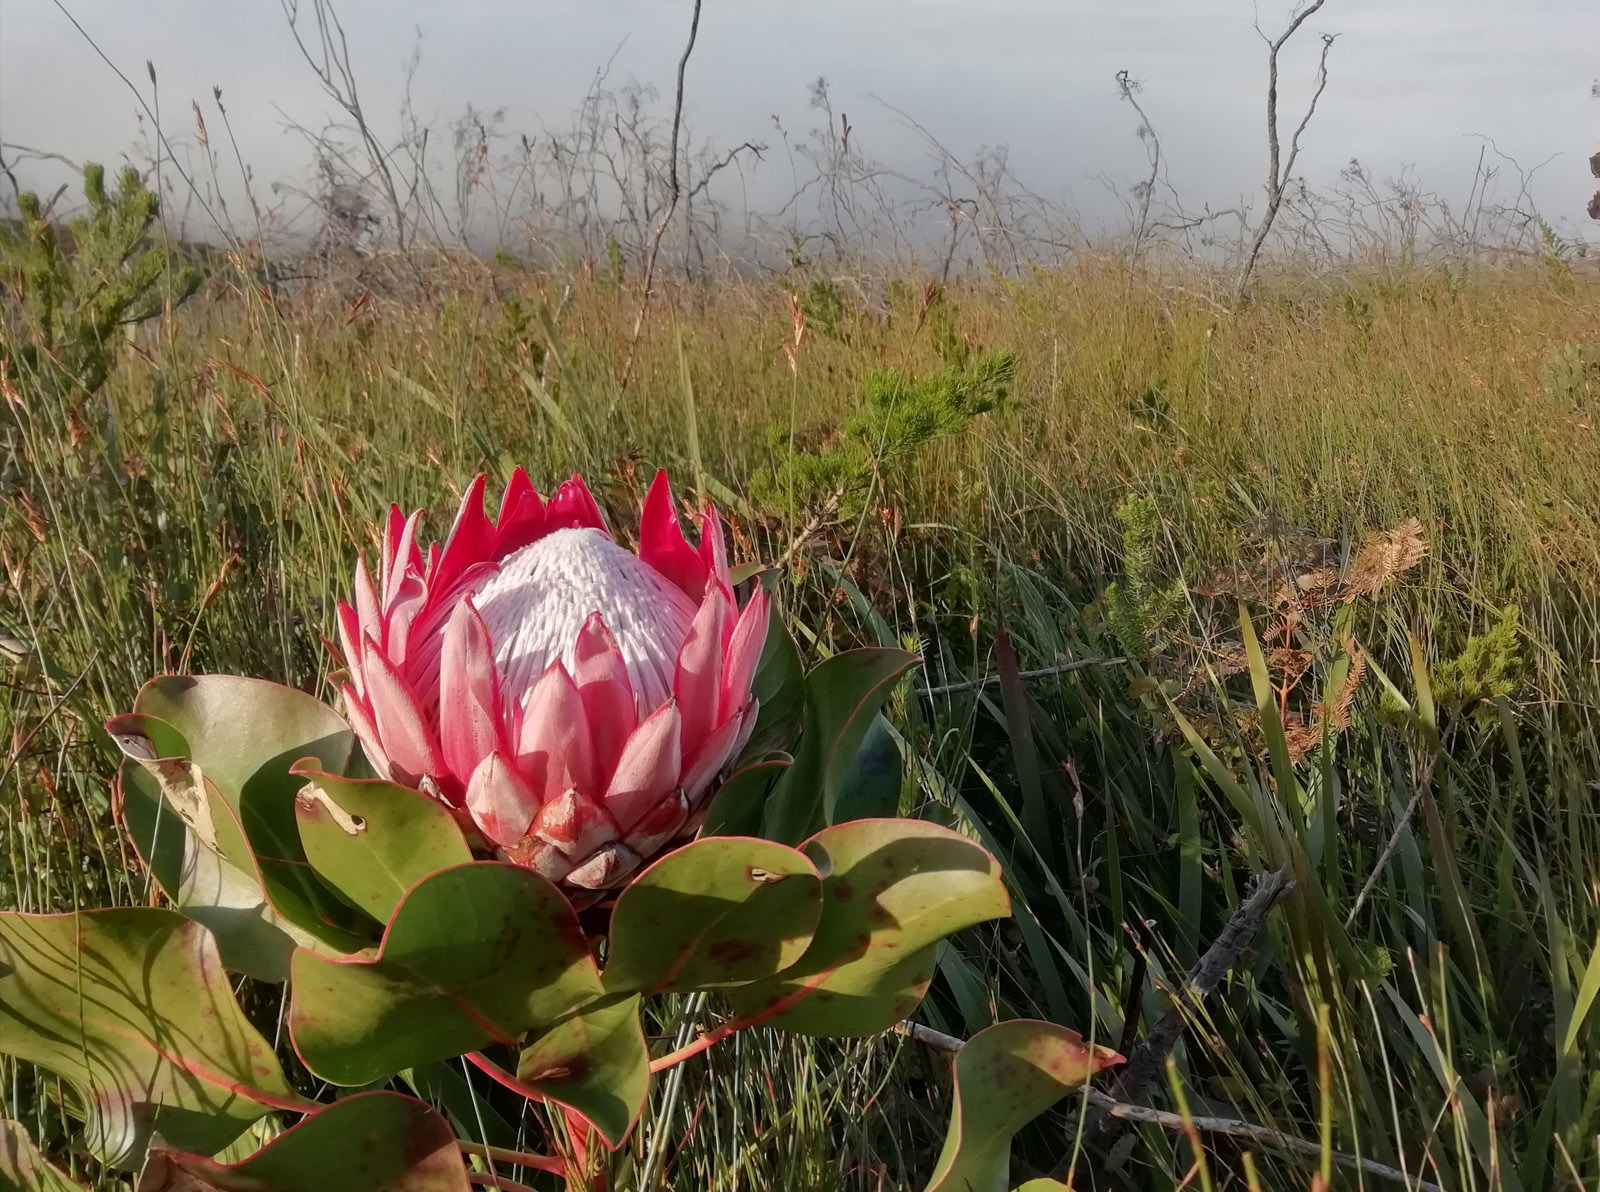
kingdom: Plantae
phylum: Tracheophyta
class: Magnoliopsida
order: Proteales
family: Proteaceae
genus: Protea
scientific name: Protea cynaroides
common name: King protea
